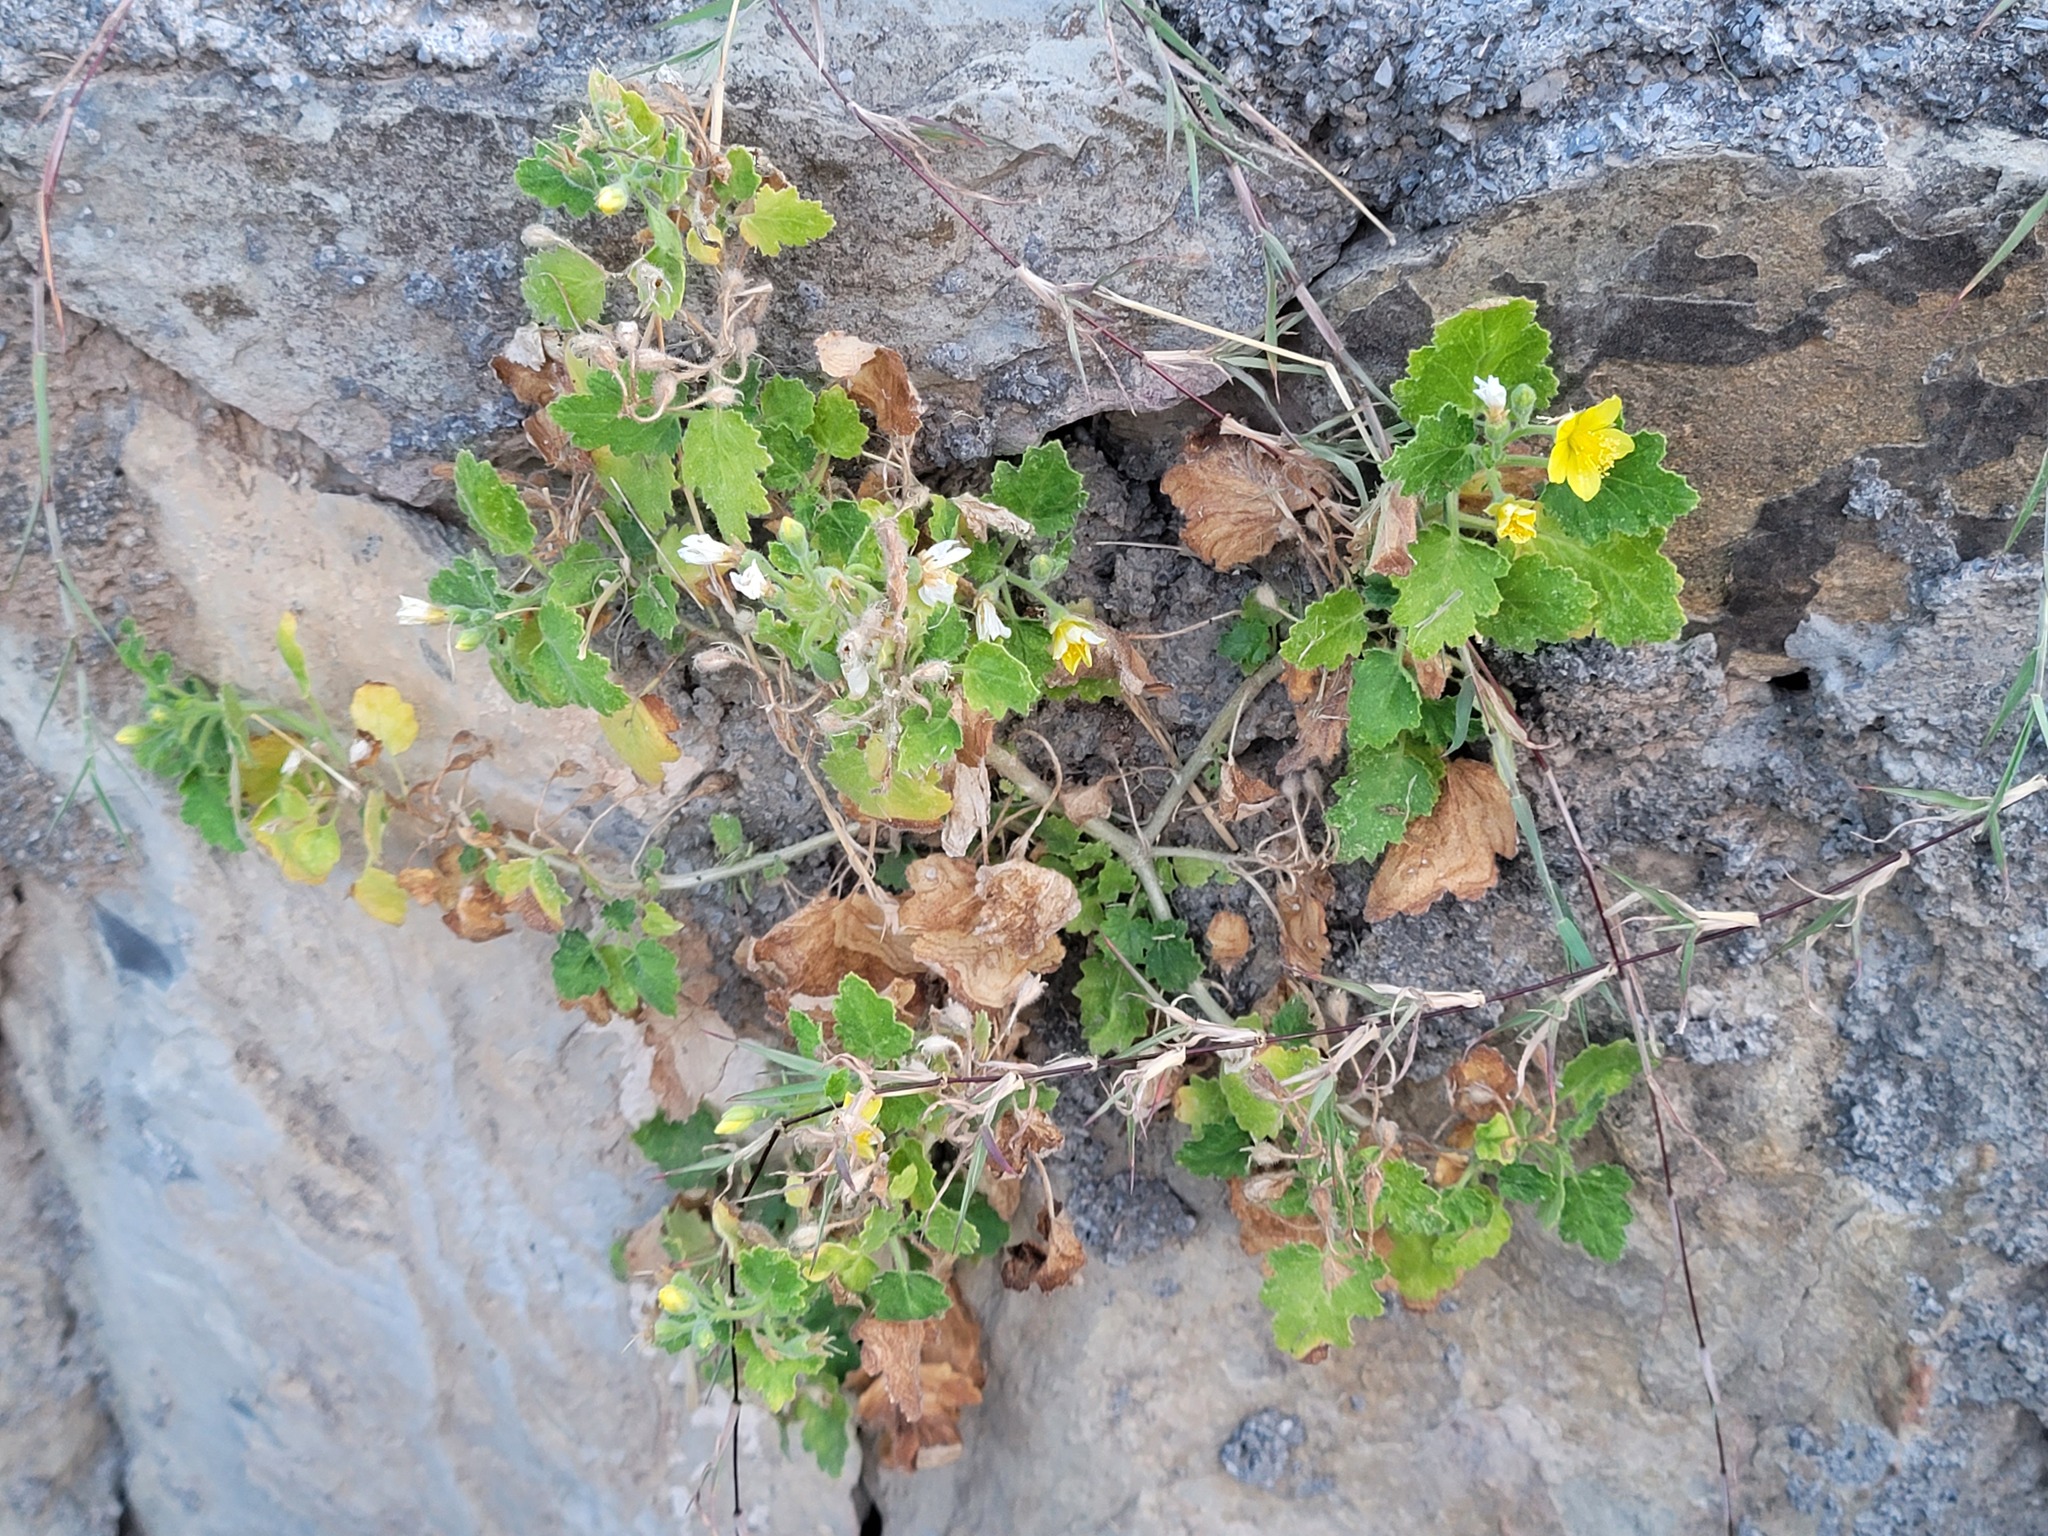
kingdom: Plantae
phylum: Tracheophyta
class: Magnoliopsida
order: Cornales
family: Loasaceae
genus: Eucnide
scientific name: Eucnide lobata
